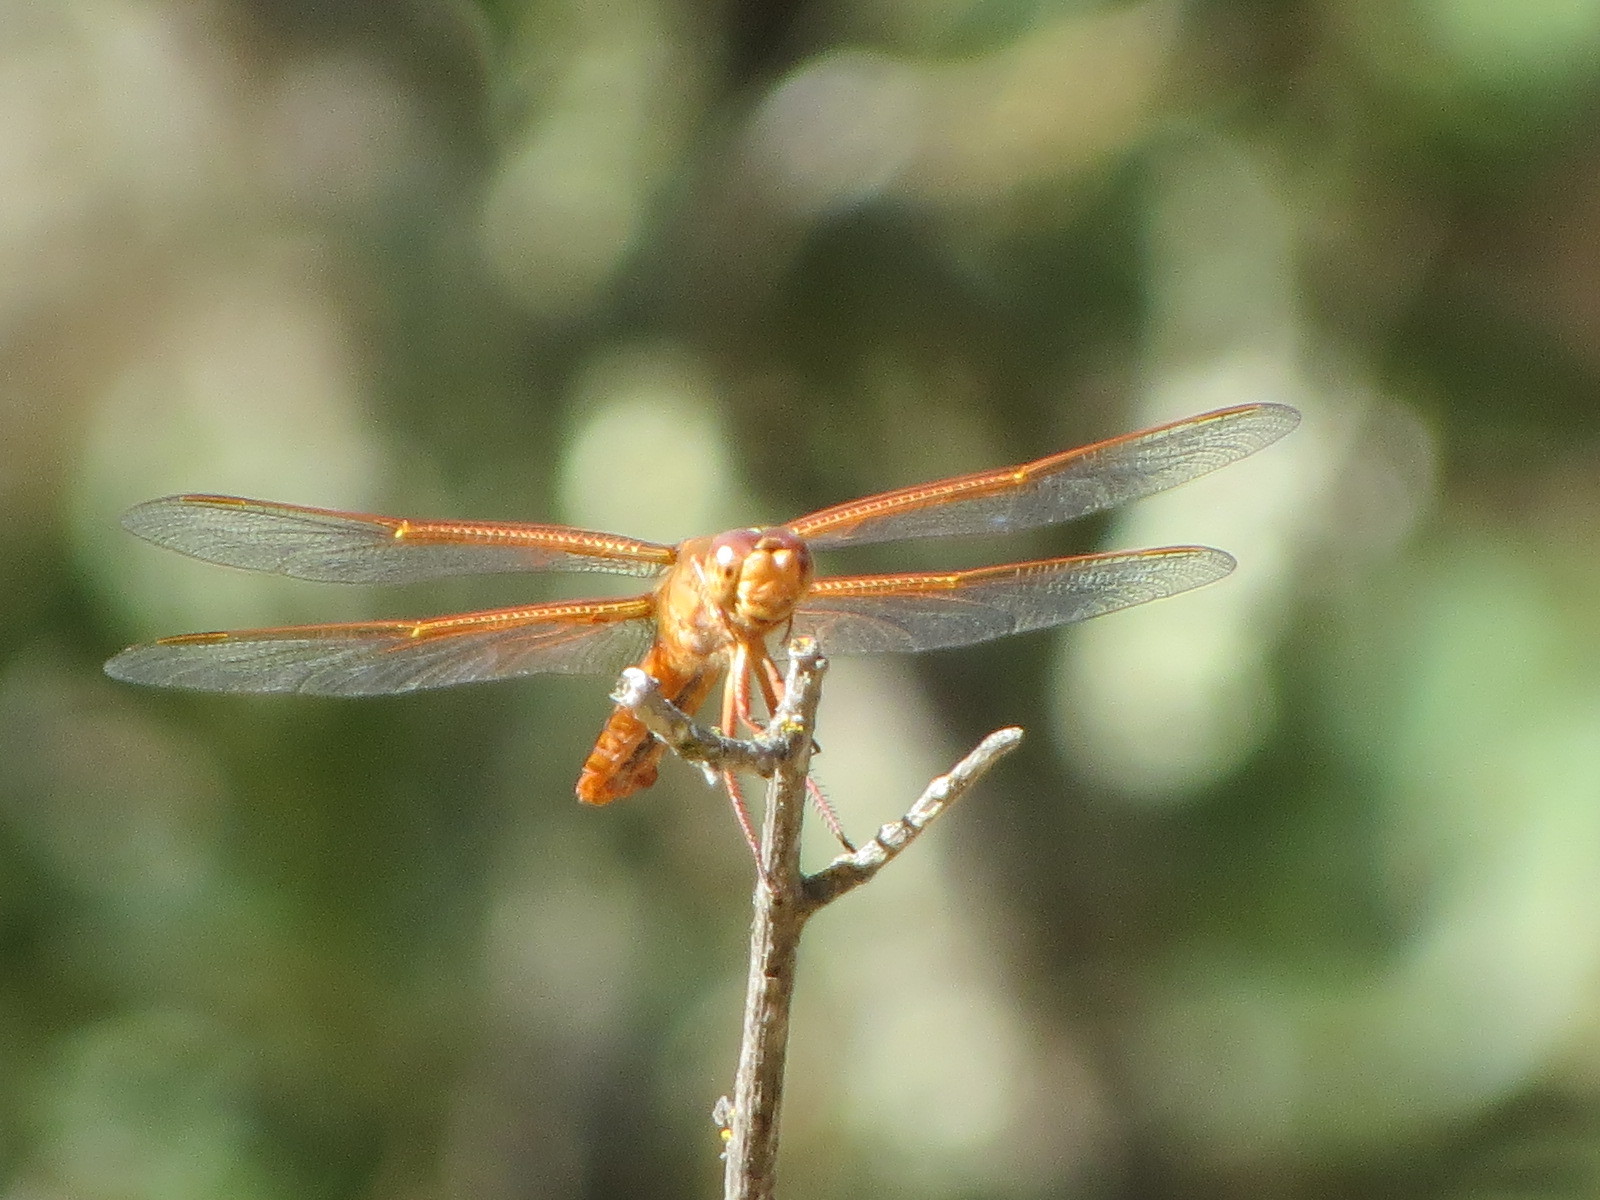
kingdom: Animalia
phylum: Arthropoda
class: Insecta
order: Odonata
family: Libellulidae
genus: Libellula
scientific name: Libellula saturata
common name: Flame skimmer
